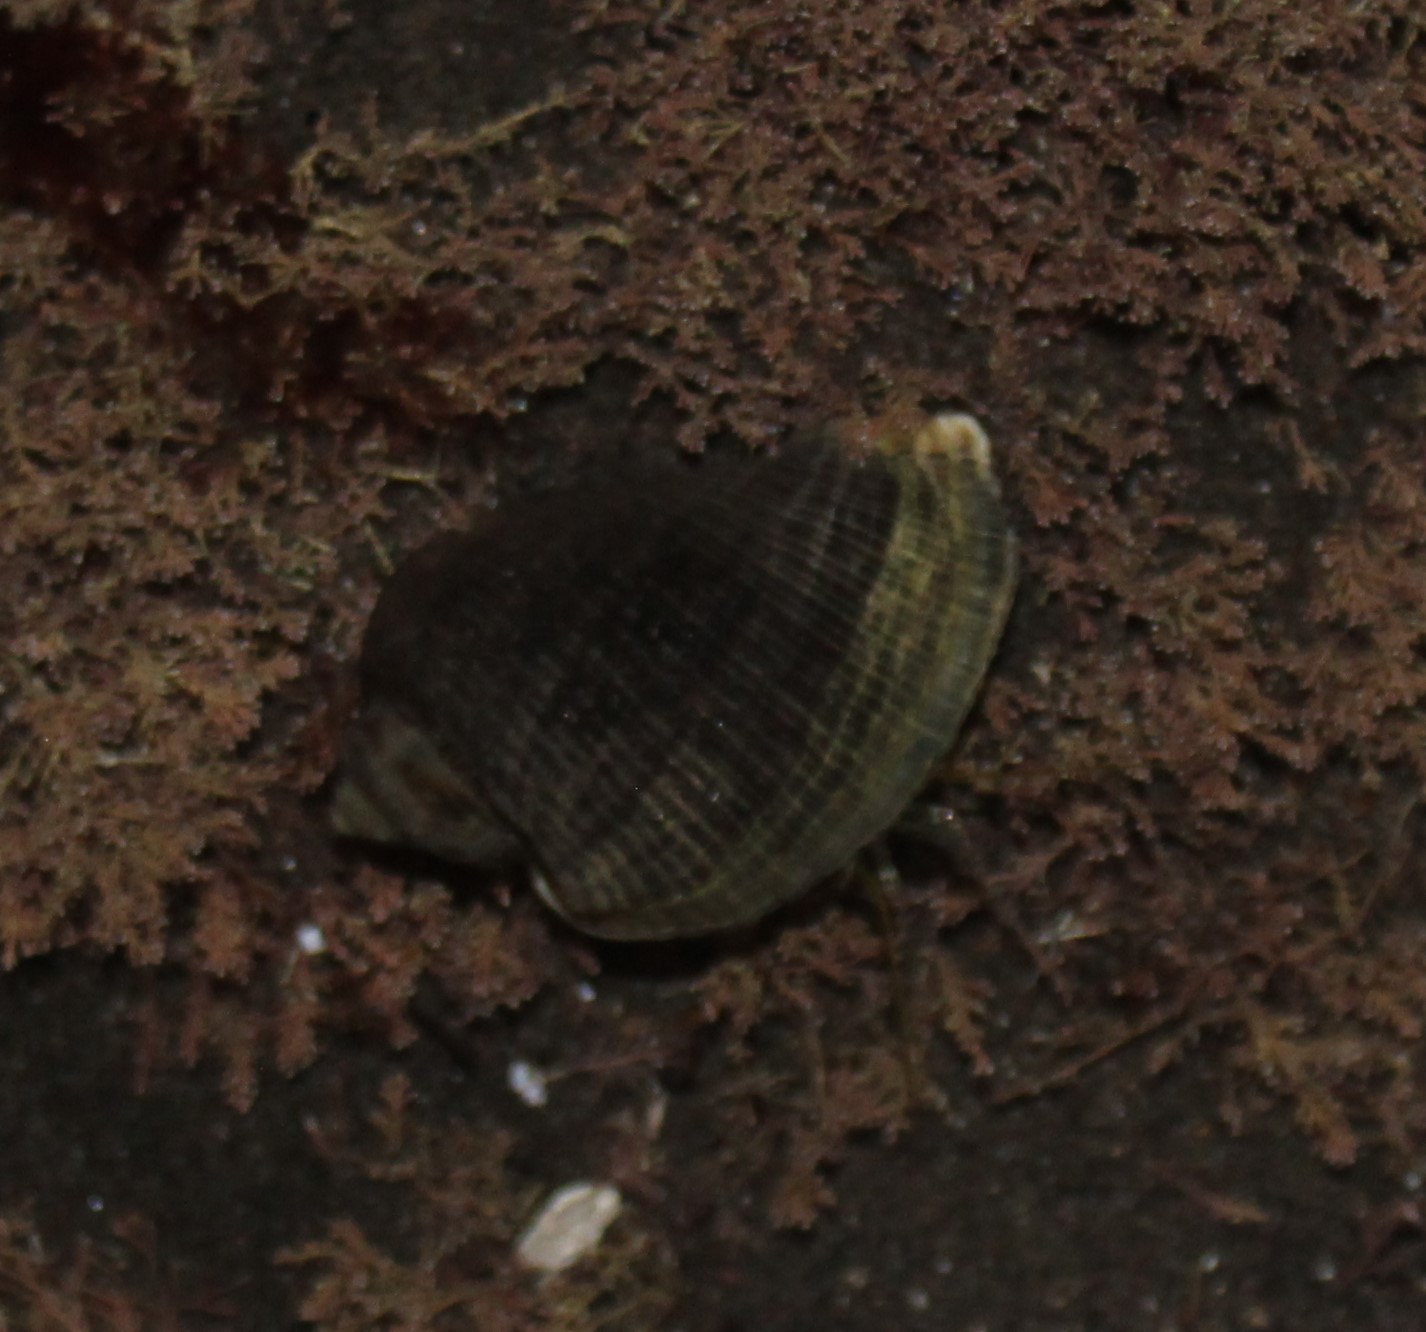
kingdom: Animalia
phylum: Mollusca
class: Gastropoda
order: Neogastropoda
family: Muricidae
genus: Haustrum
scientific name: Haustrum haustorium
